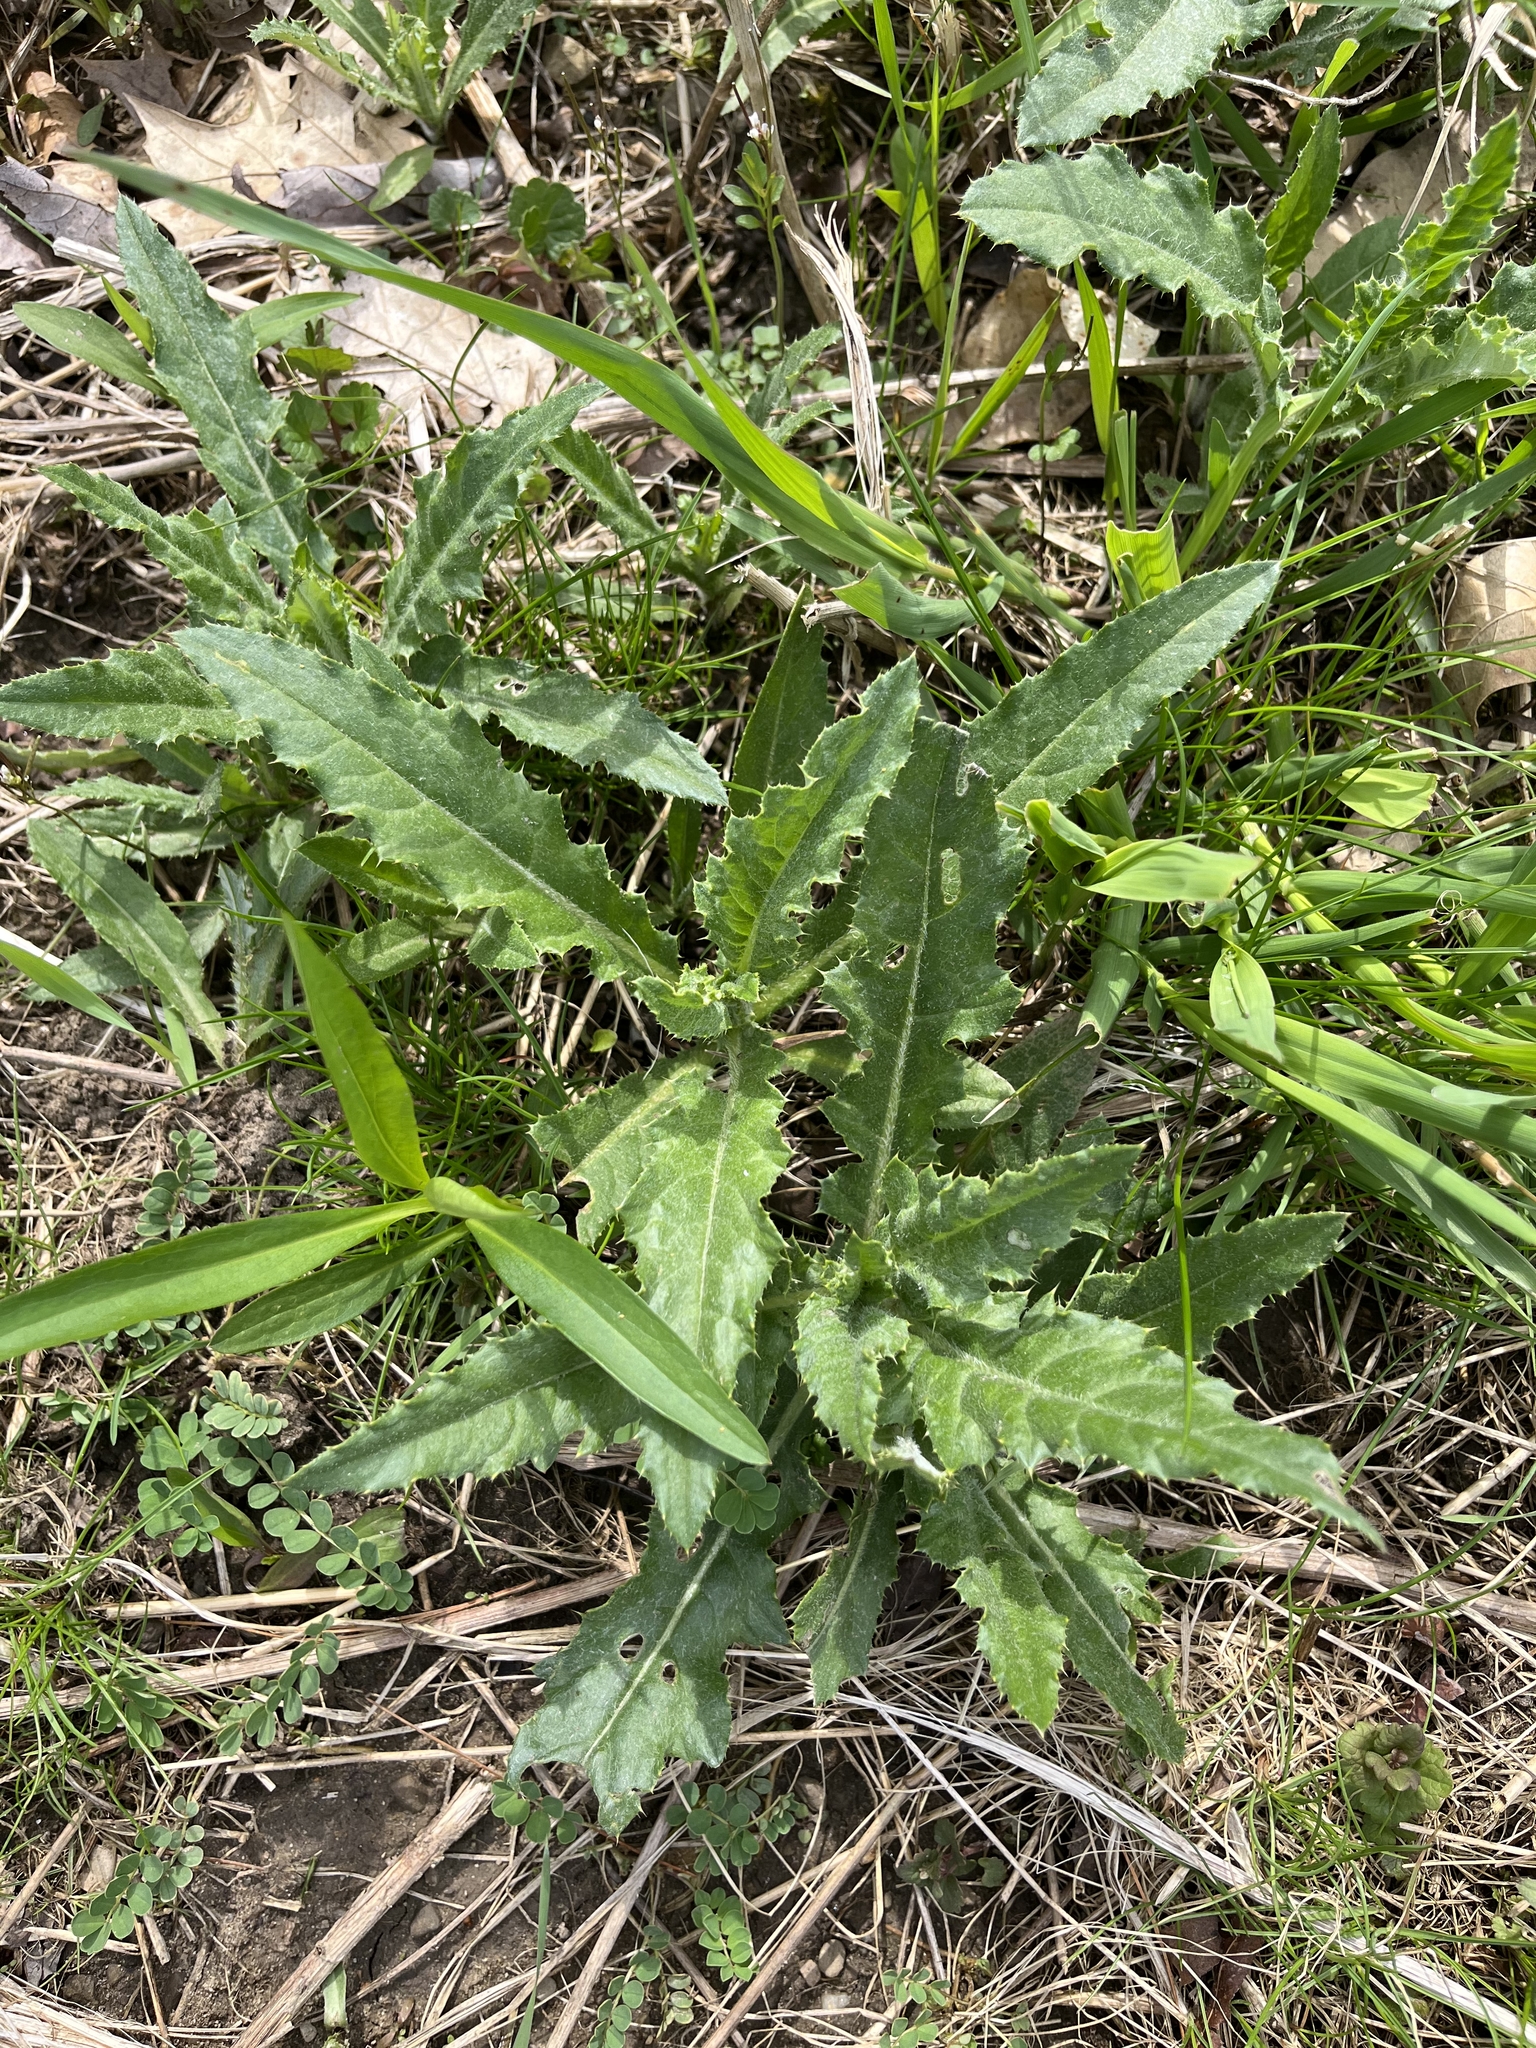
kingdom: Plantae
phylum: Tracheophyta
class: Magnoliopsida
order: Asterales
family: Asteraceae
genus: Cirsium
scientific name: Cirsium arvense
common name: Creeping thistle
